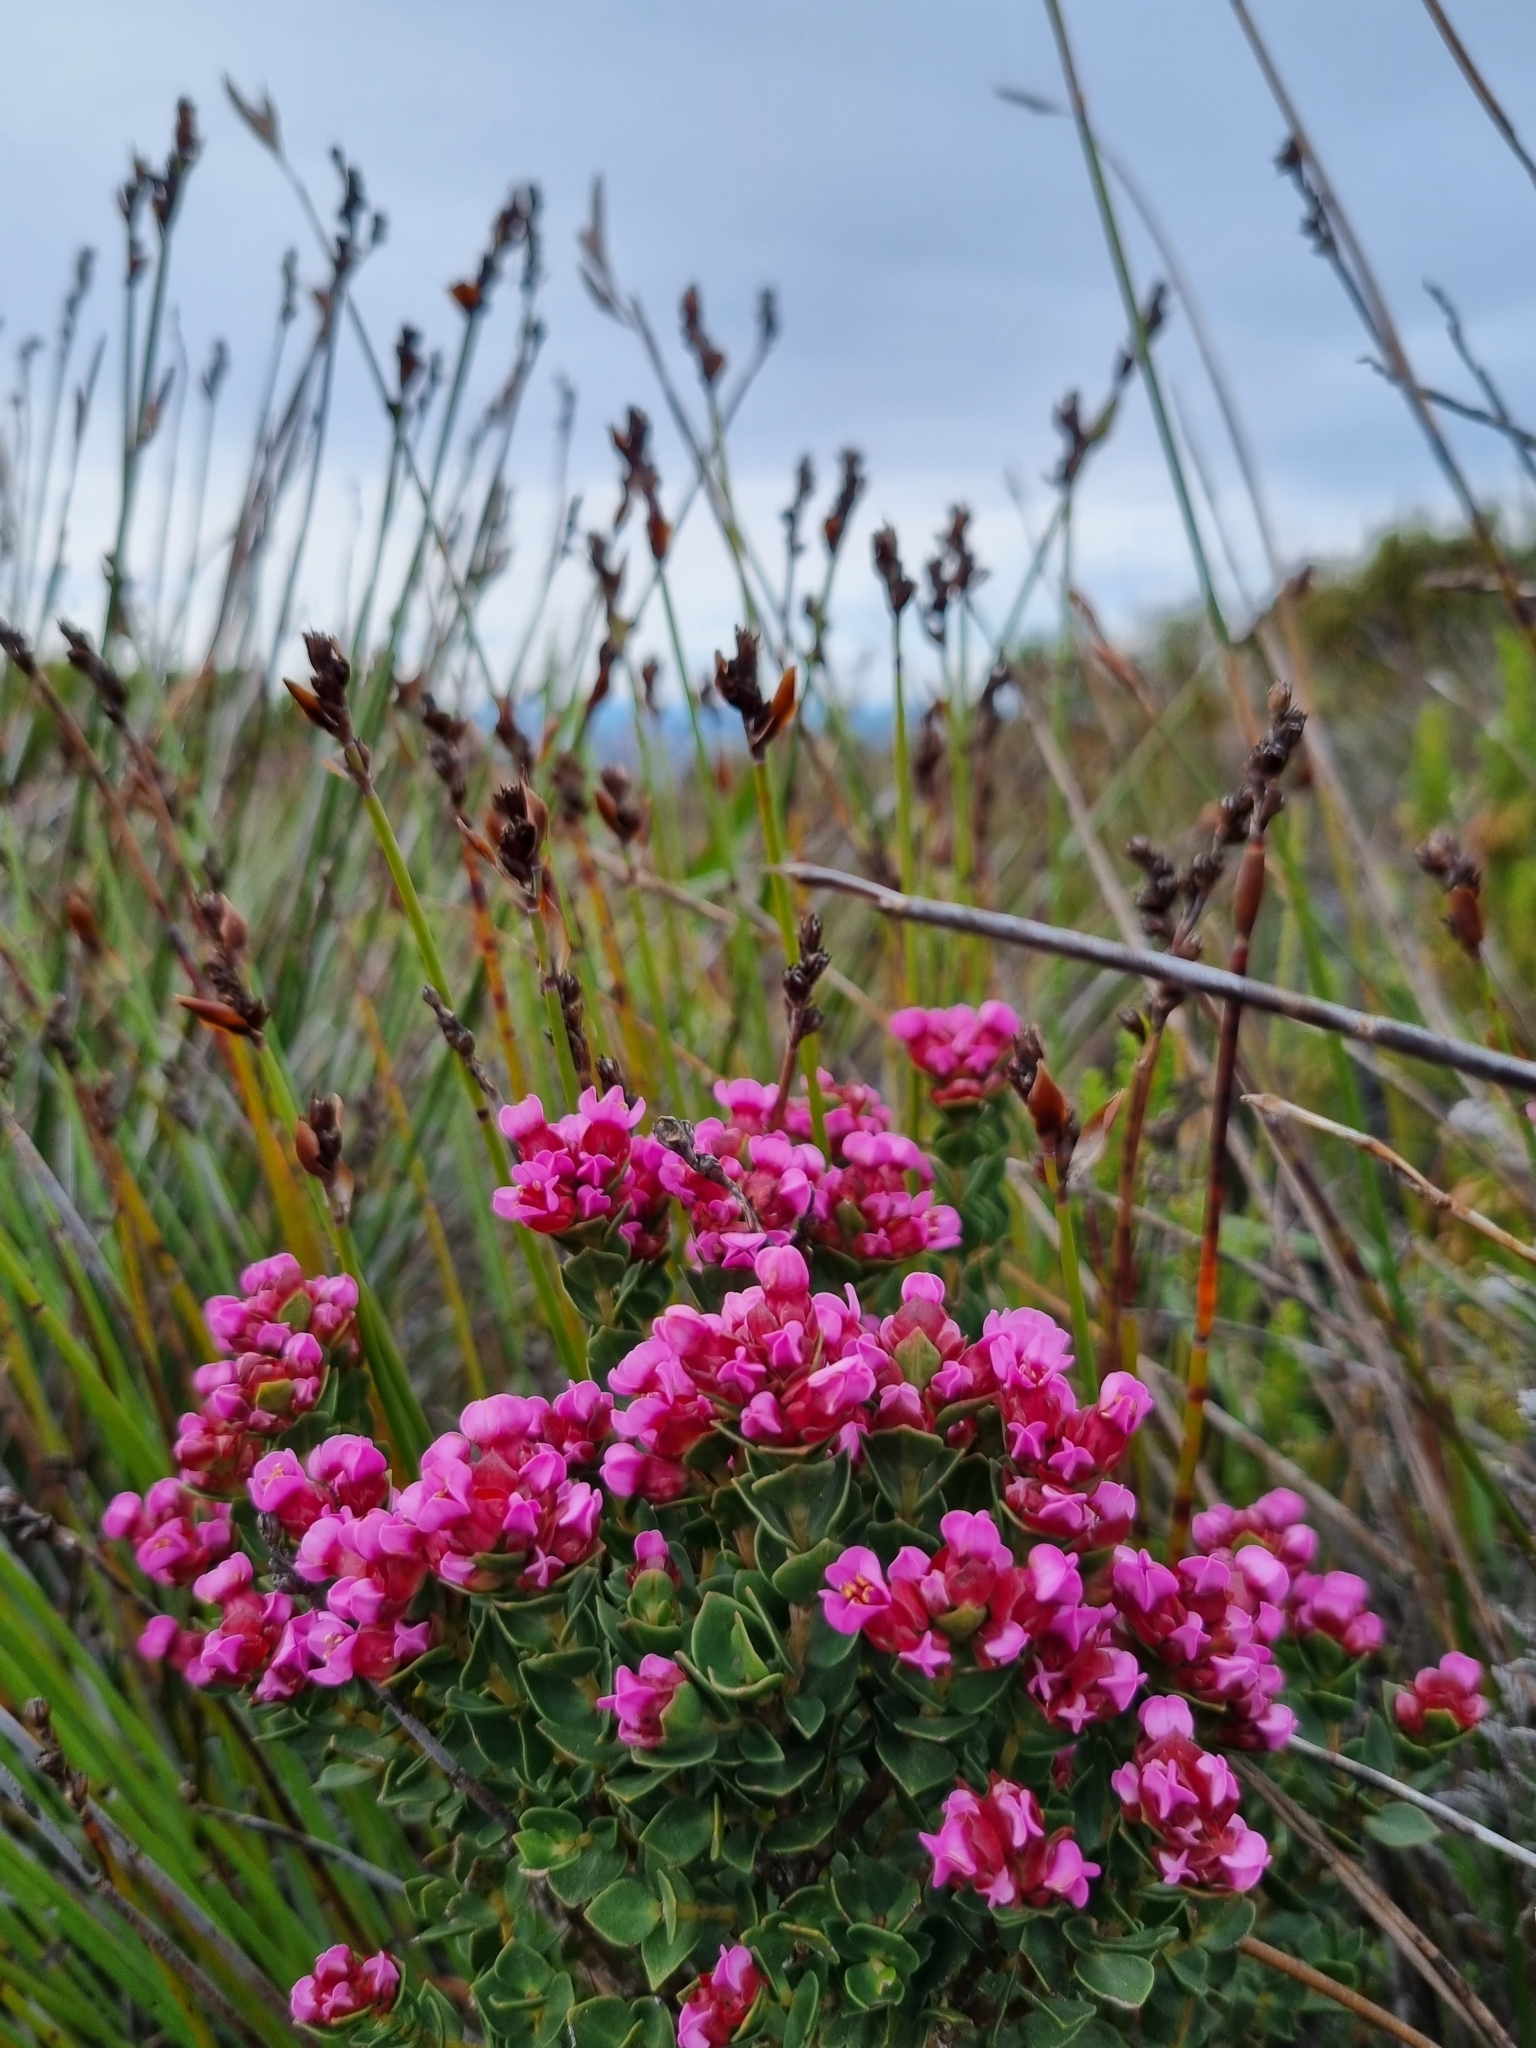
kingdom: Plantae
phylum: Tracheophyta
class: Magnoliopsida
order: Myrtales
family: Penaeaceae
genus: Brachysiphon
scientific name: Brachysiphon fucatus
